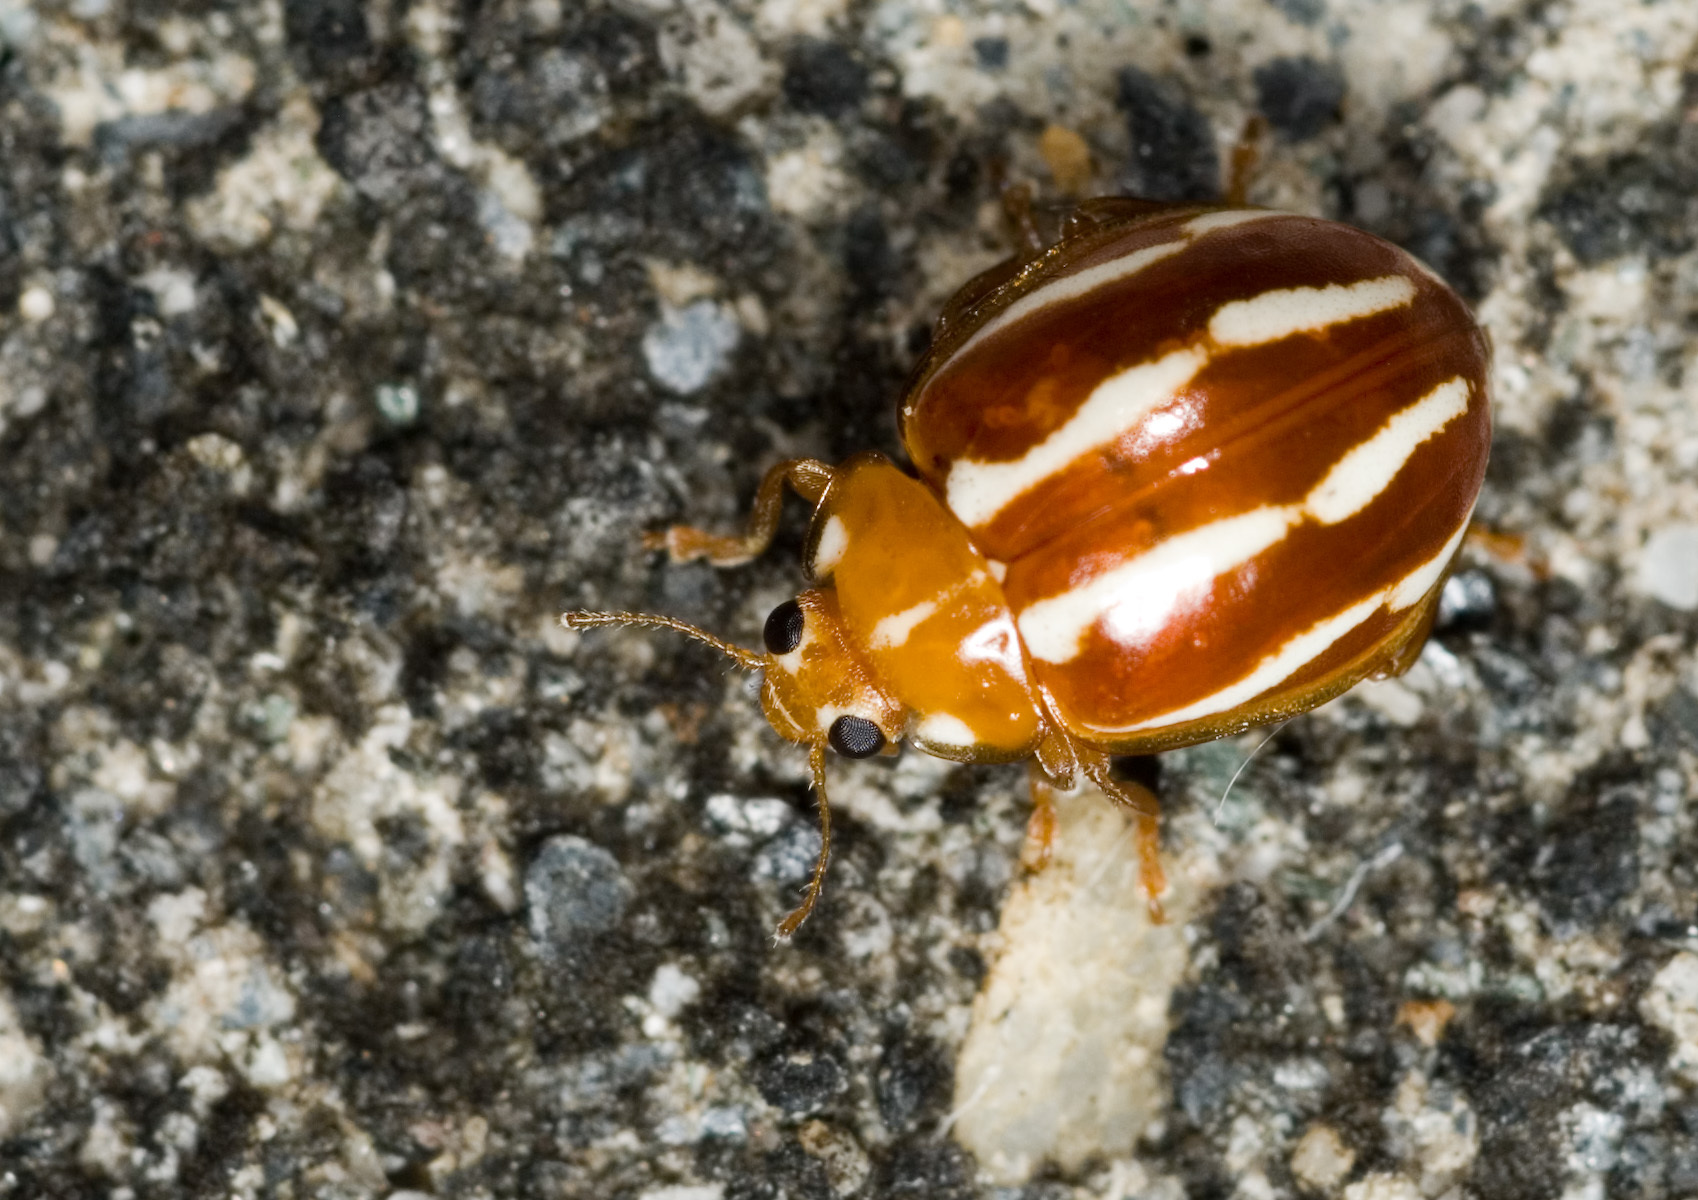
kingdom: Animalia
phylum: Arthropoda
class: Insecta
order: Coleoptera
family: Coccinellidae
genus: Miyataketentou
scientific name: Miyataketentou quadrivittata
